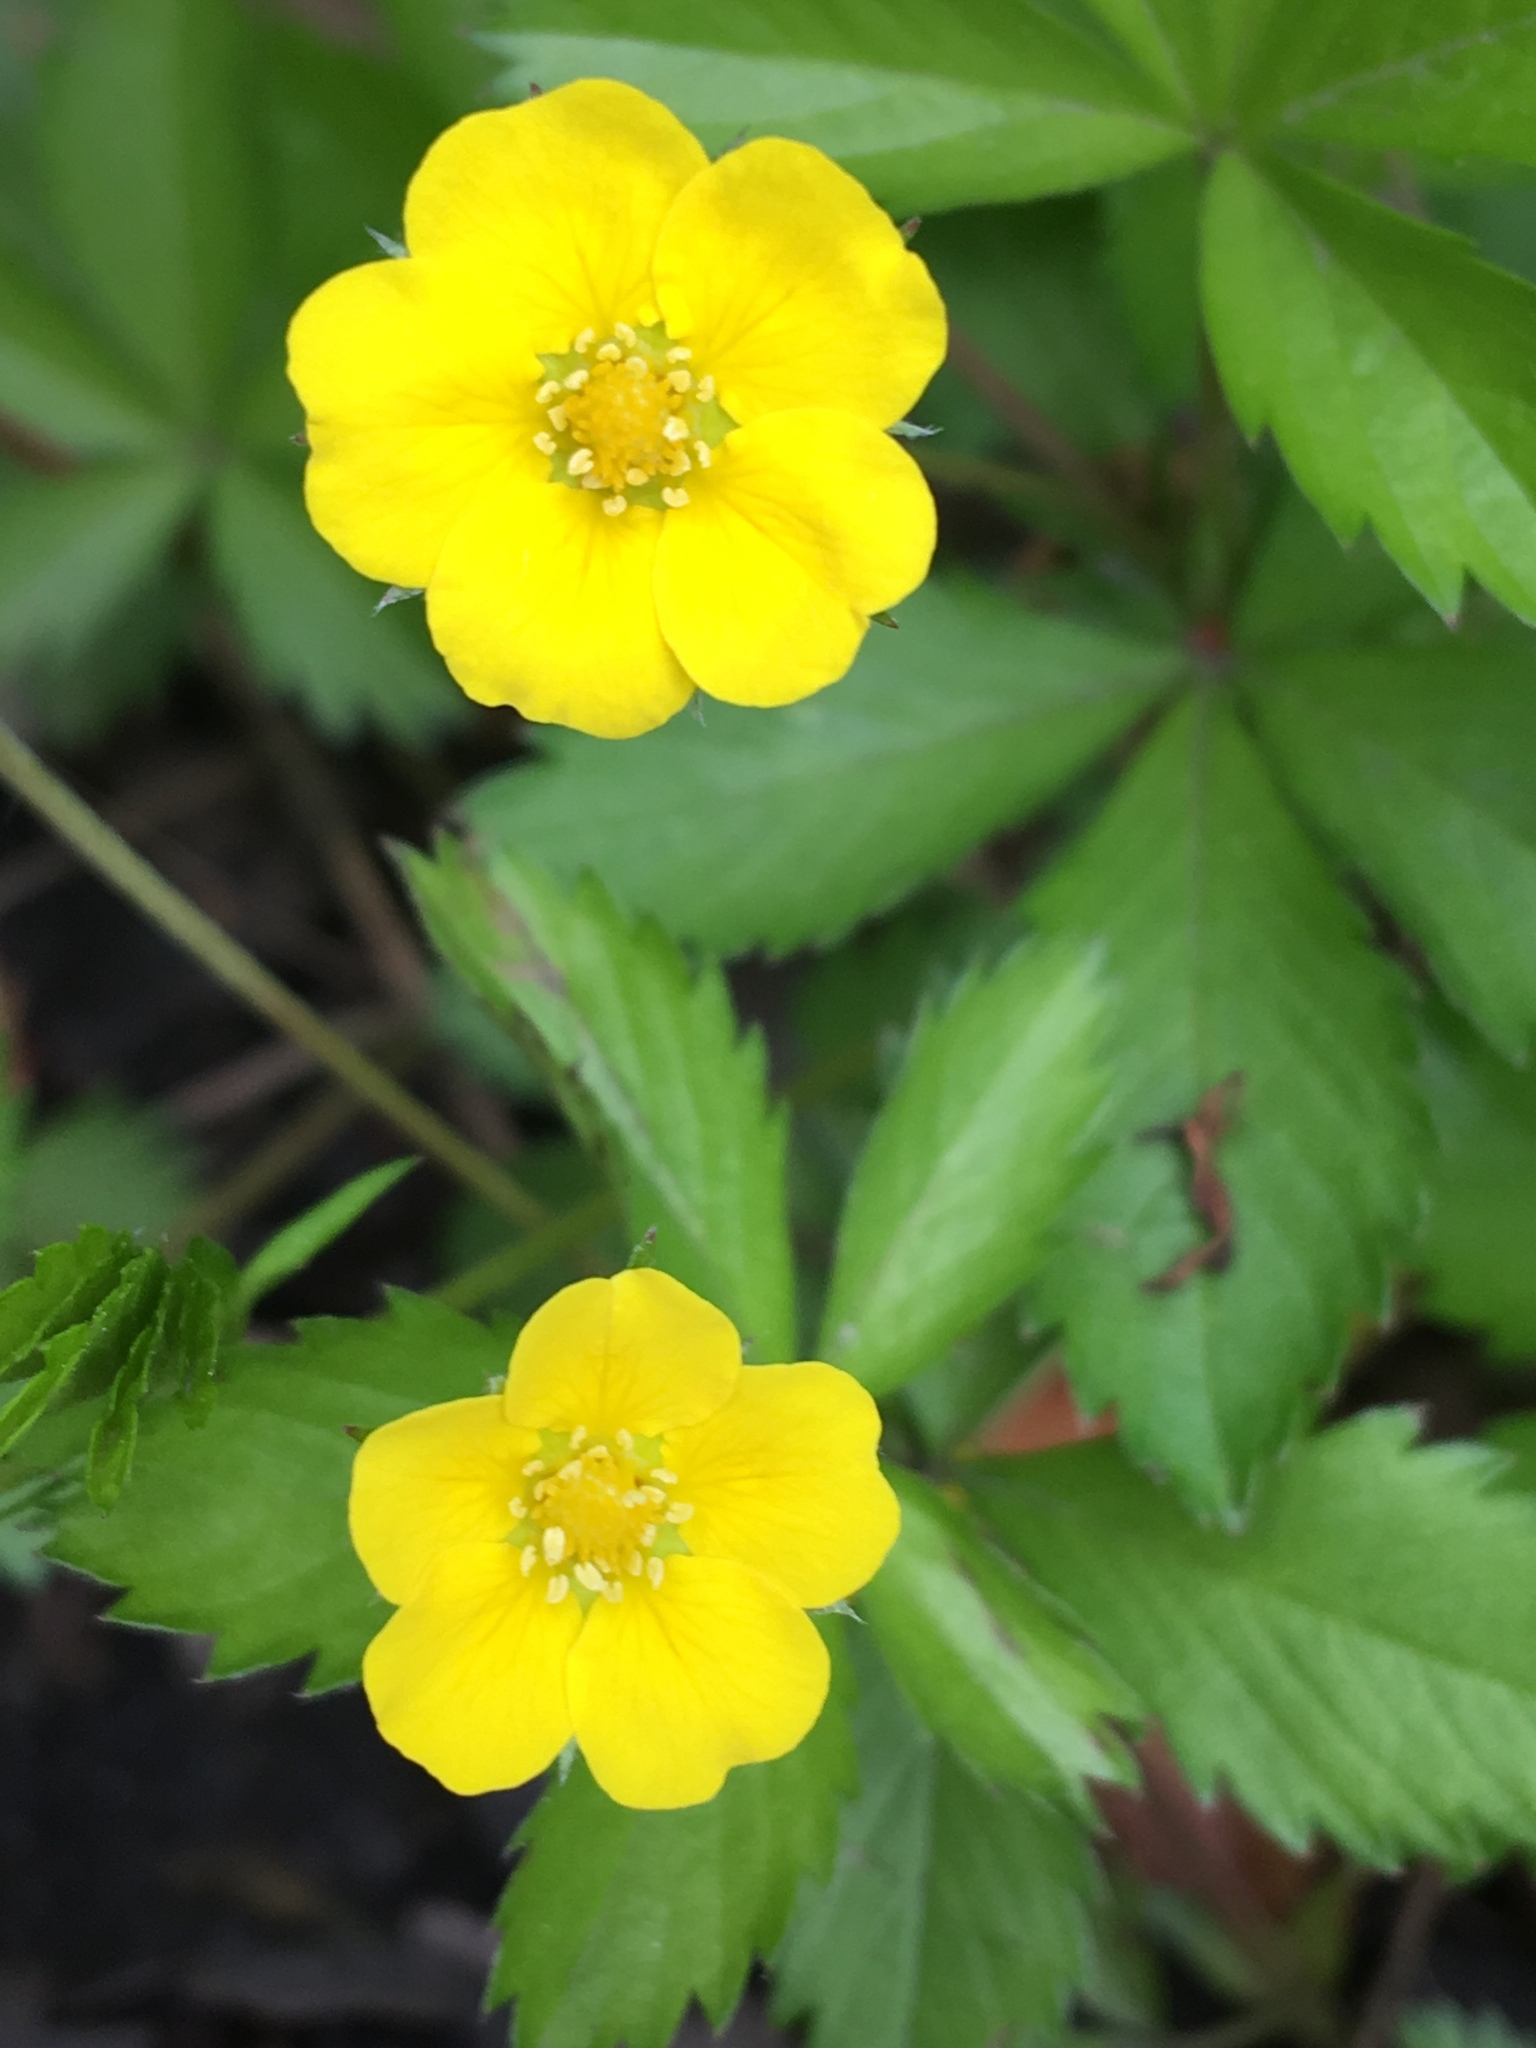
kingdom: Plantae
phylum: Tracheophyta
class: Magnoliopsida
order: Rosales
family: Rosaceae
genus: Potentilla
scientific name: Potentilla simplex
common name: Old field cinquefoil
